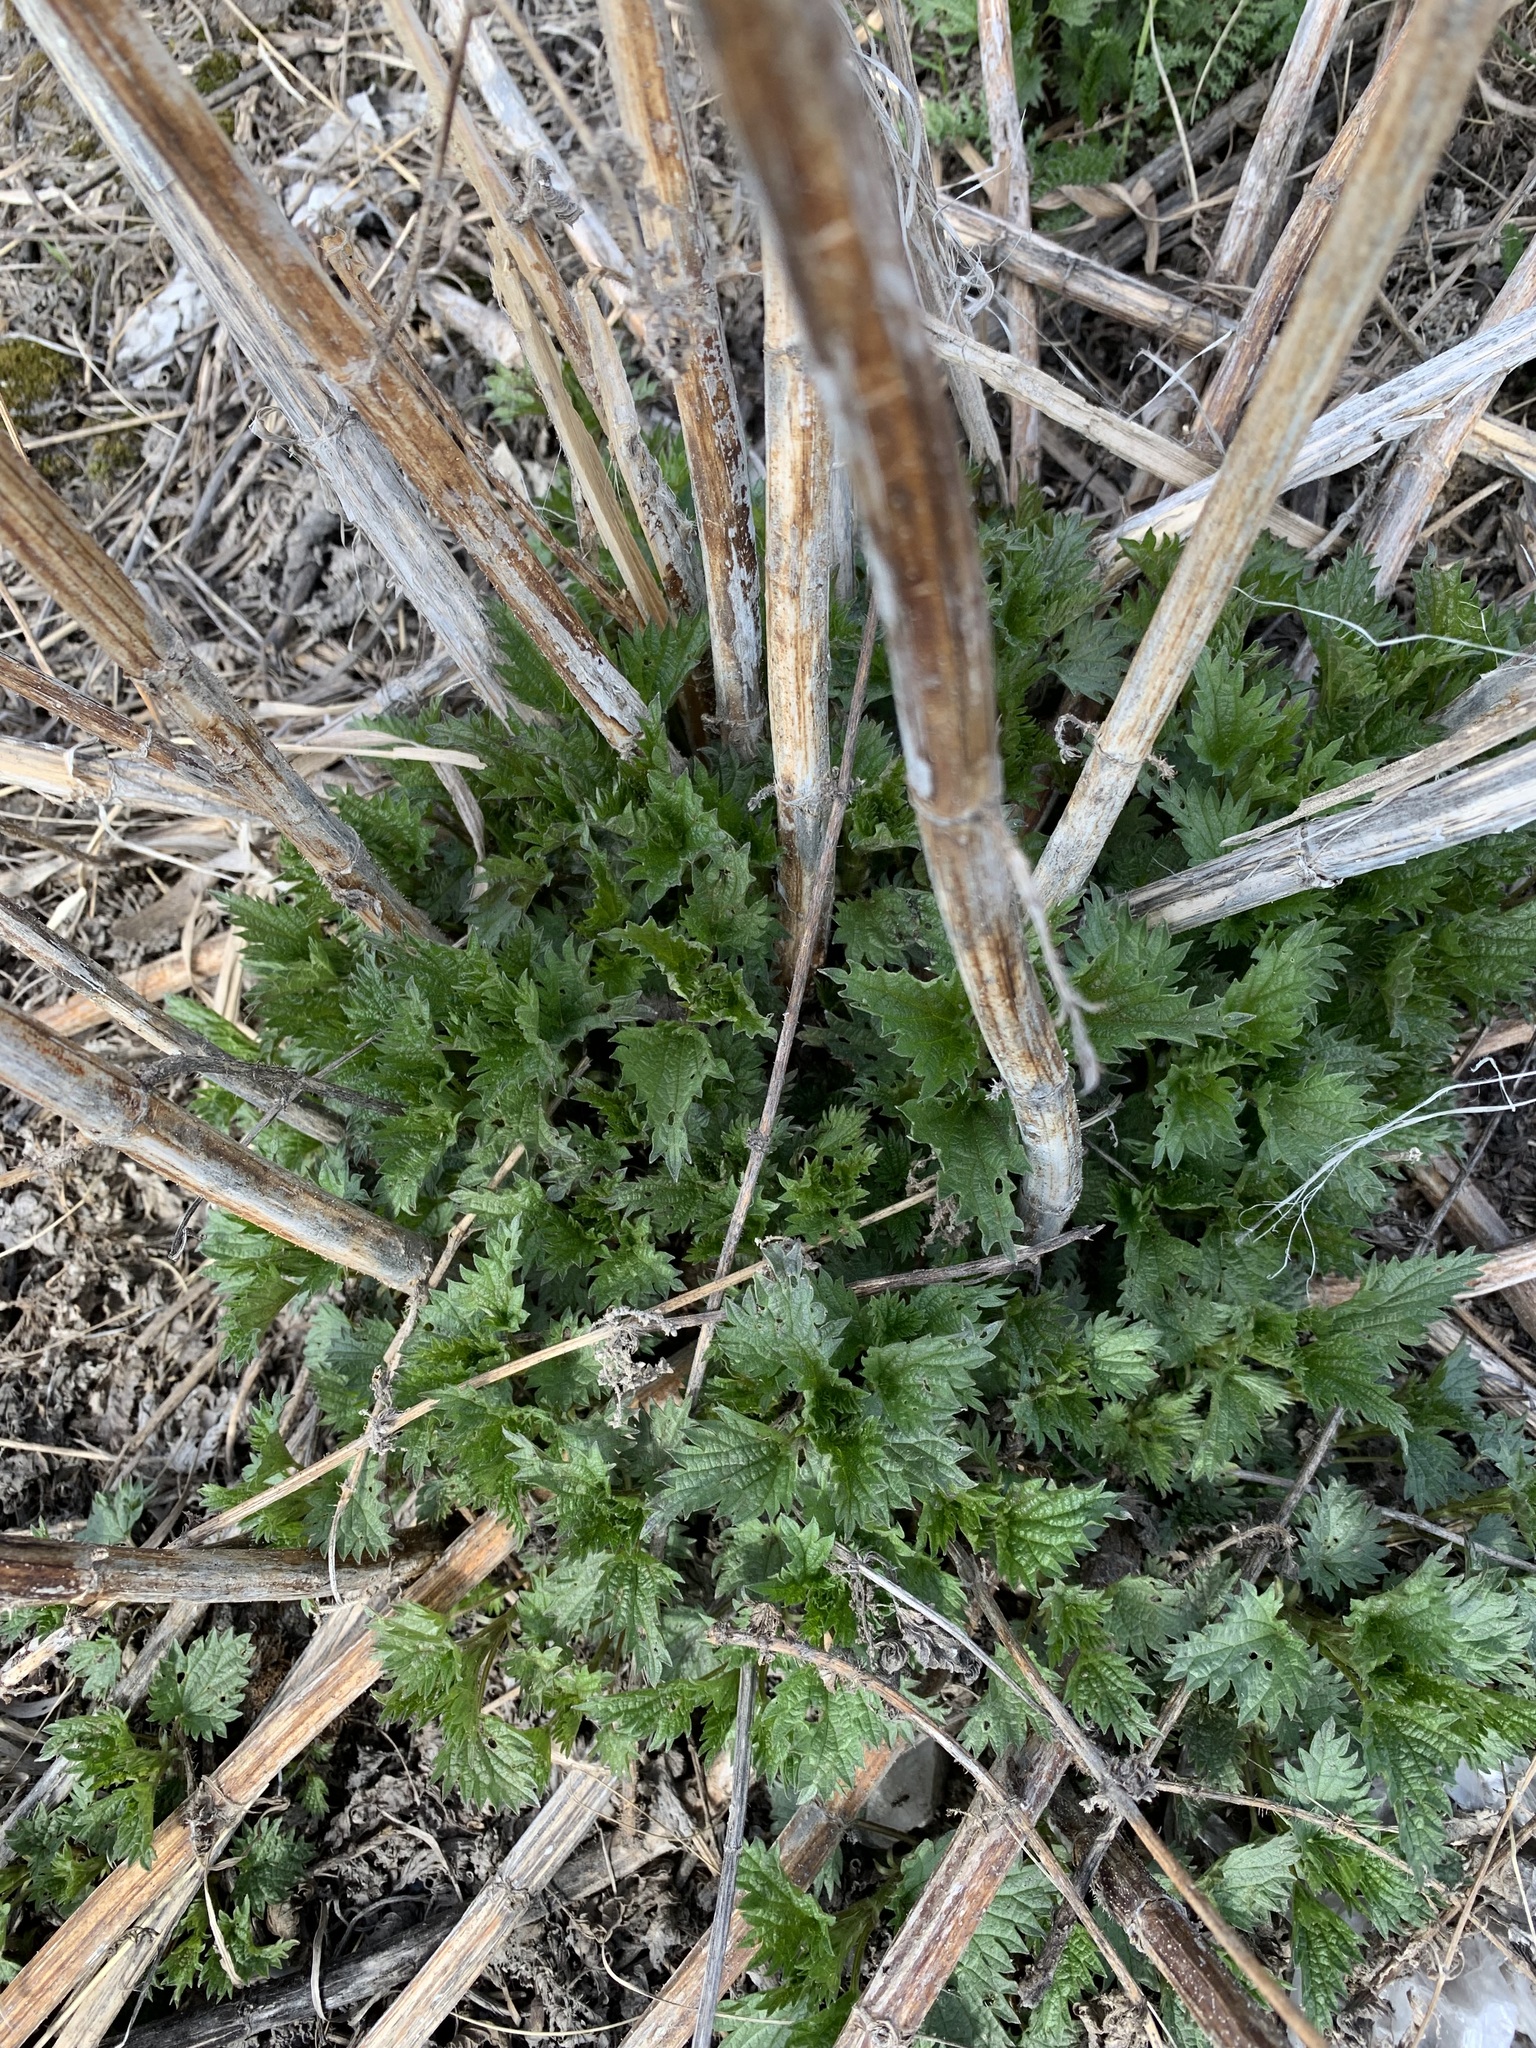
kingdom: Plantae
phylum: Tracheophyta
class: Magnoliopsida
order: Rosales
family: Urticaceae
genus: Urtica
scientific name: Urtica dioica
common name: Common nettle
